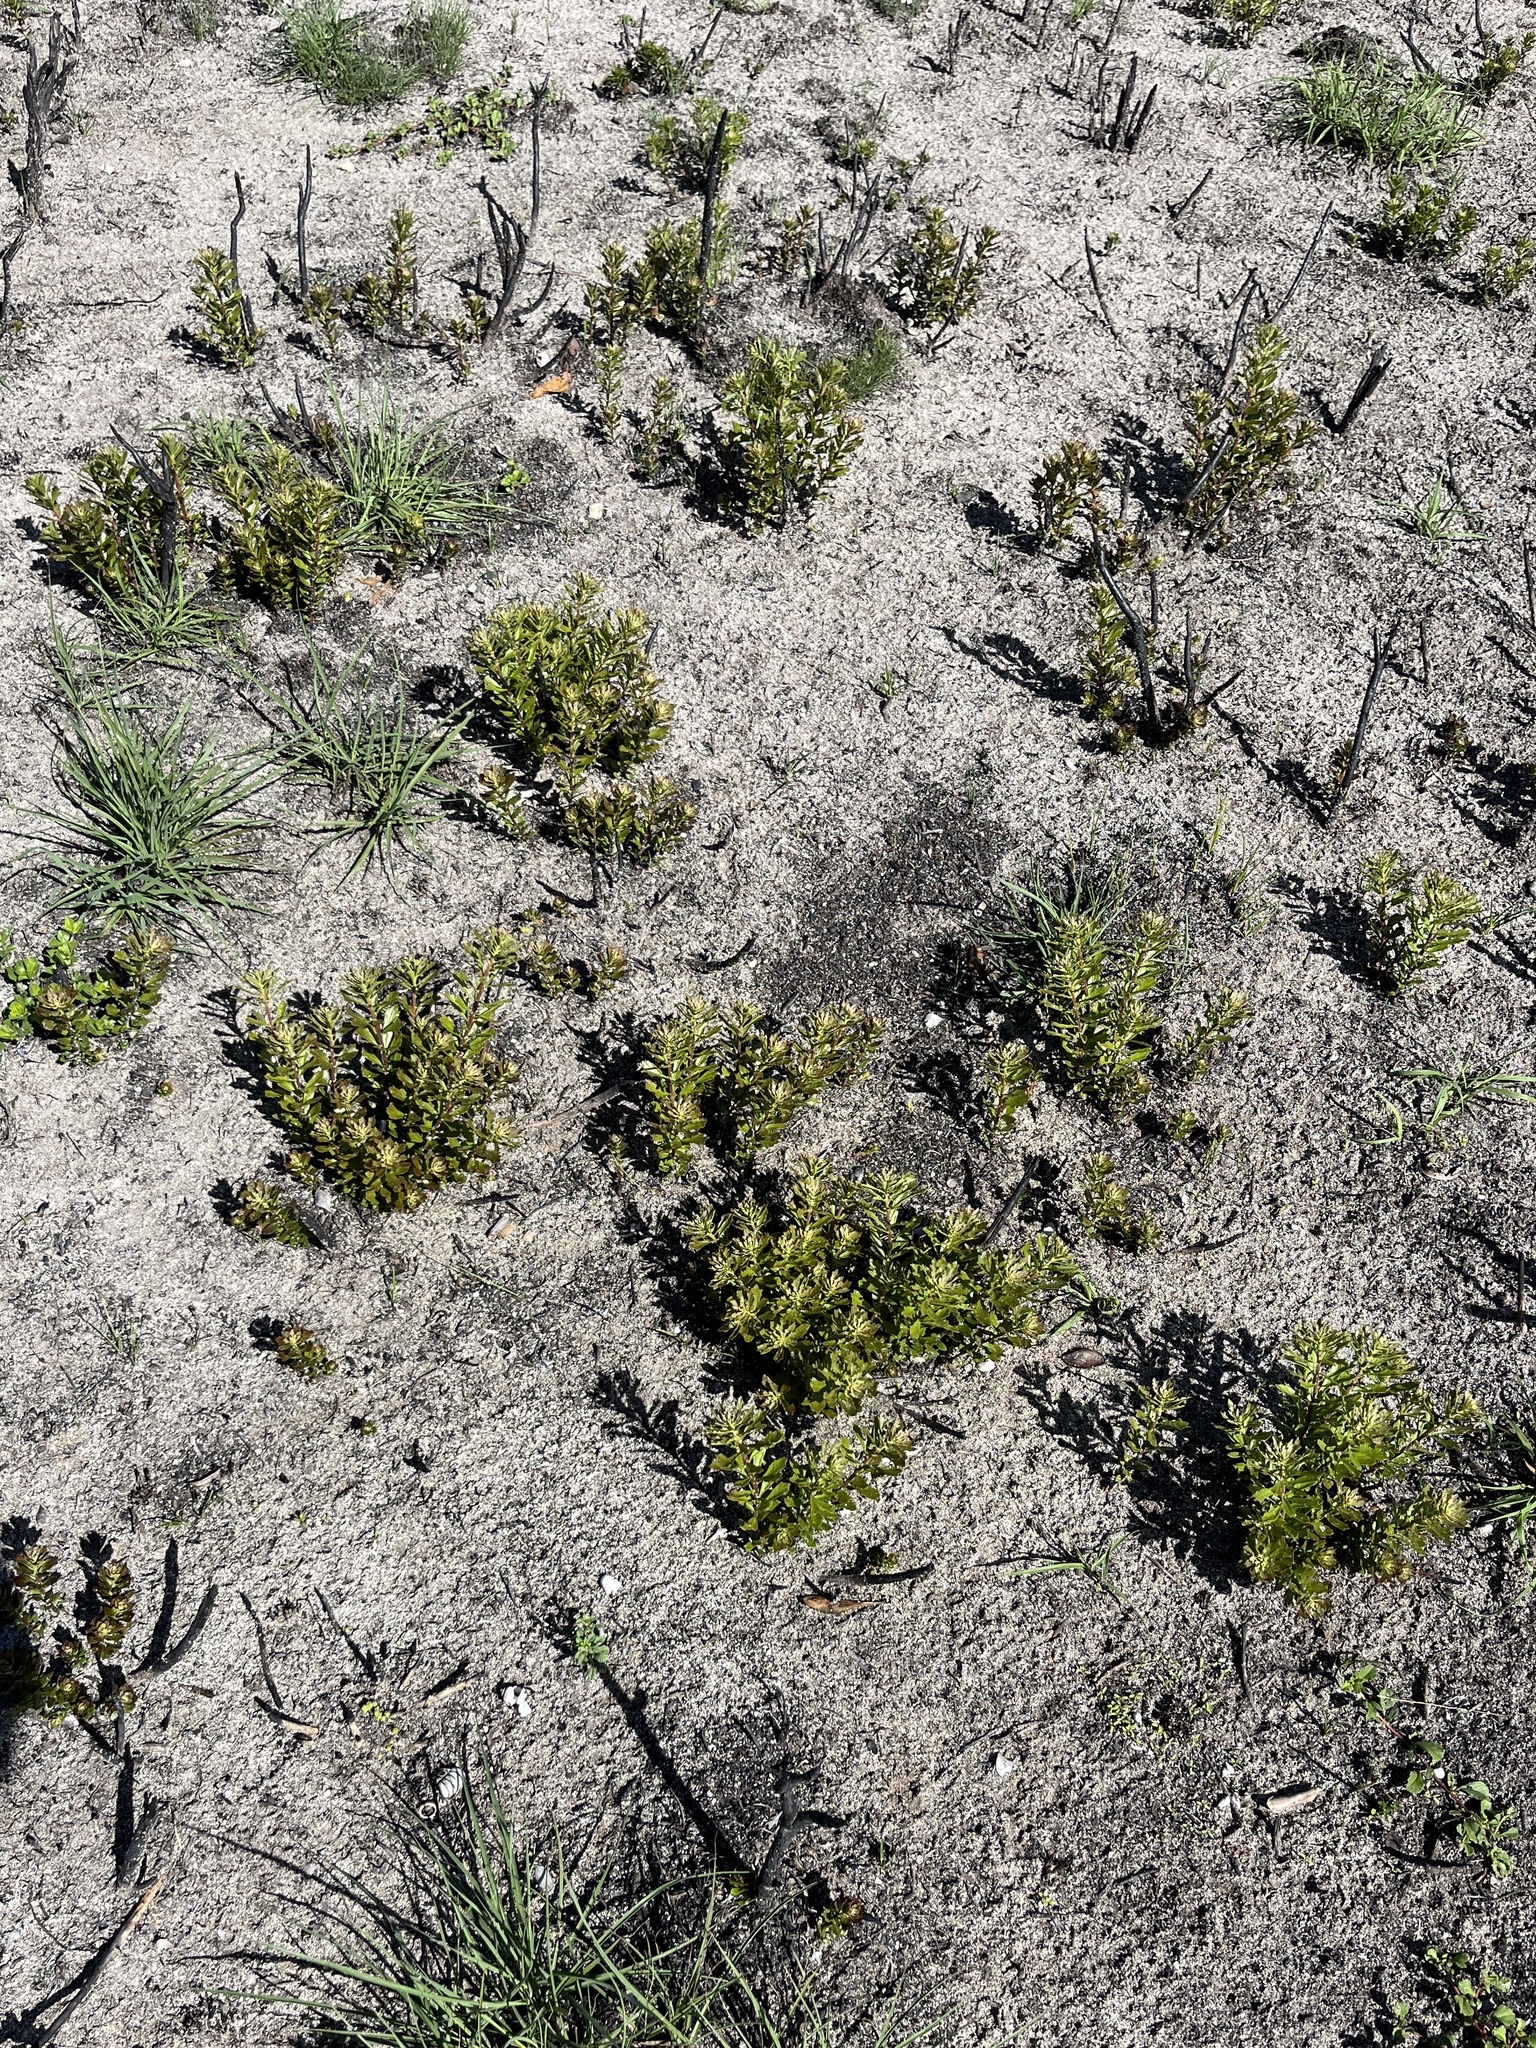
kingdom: Plantae
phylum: Tracheophyta
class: Magnoliopsida
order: Fagales
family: Myricaceae
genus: Morella
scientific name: Morella quercifolia
